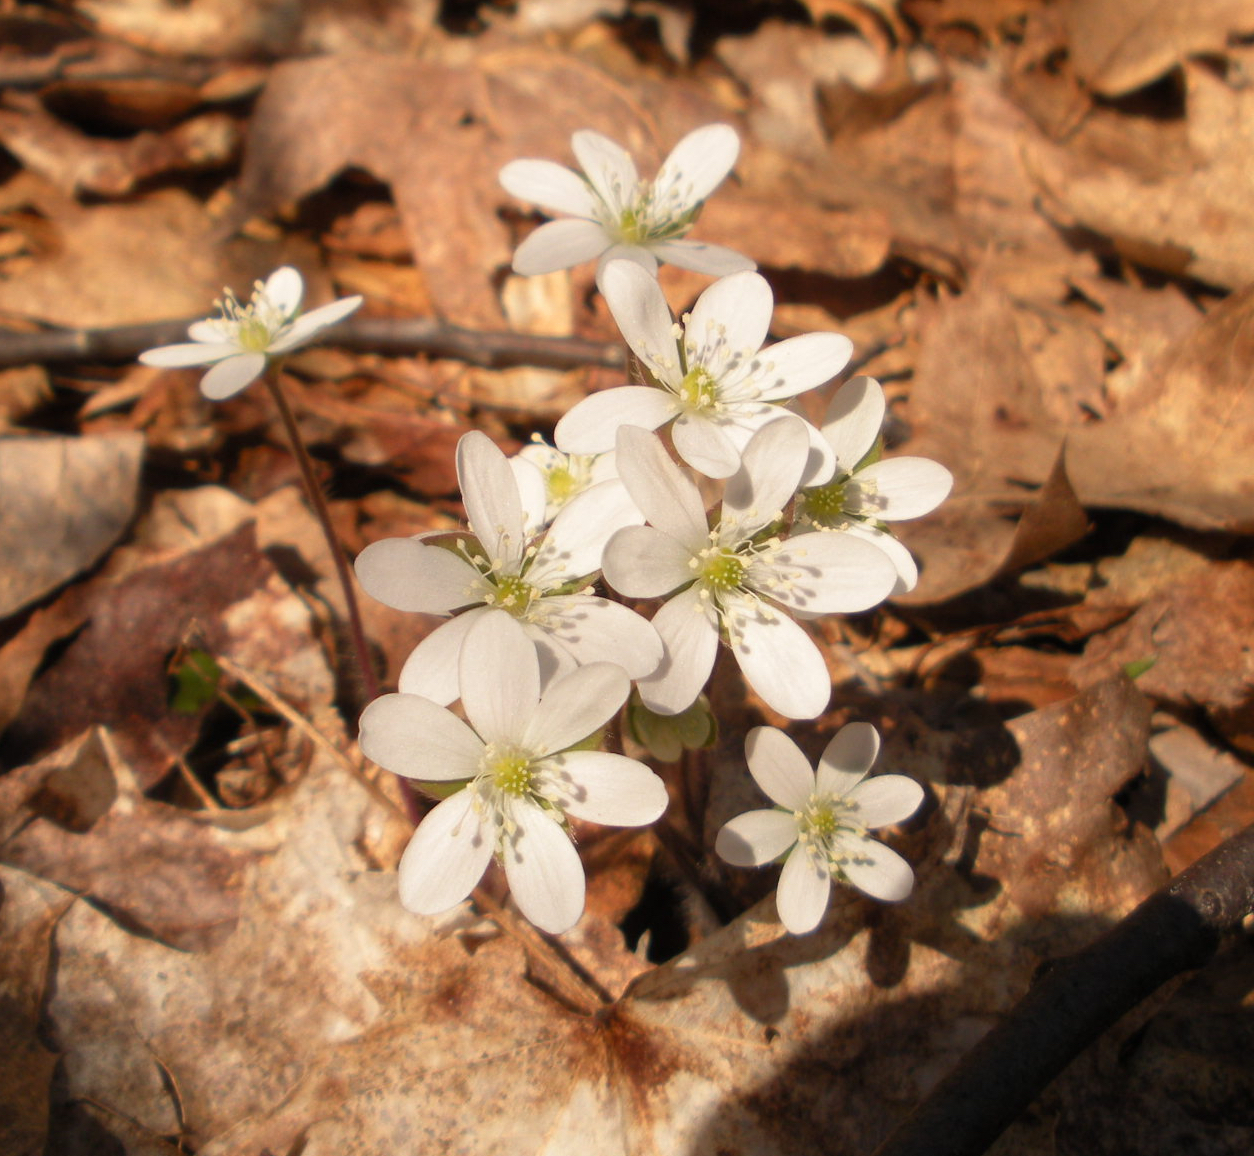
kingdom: Plantae
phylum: Tracheophyta
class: Magnoliopsida
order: Ranunculales
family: Ranunculaceae
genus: Hepatica
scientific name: Hepatica americana
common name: American hepatica
